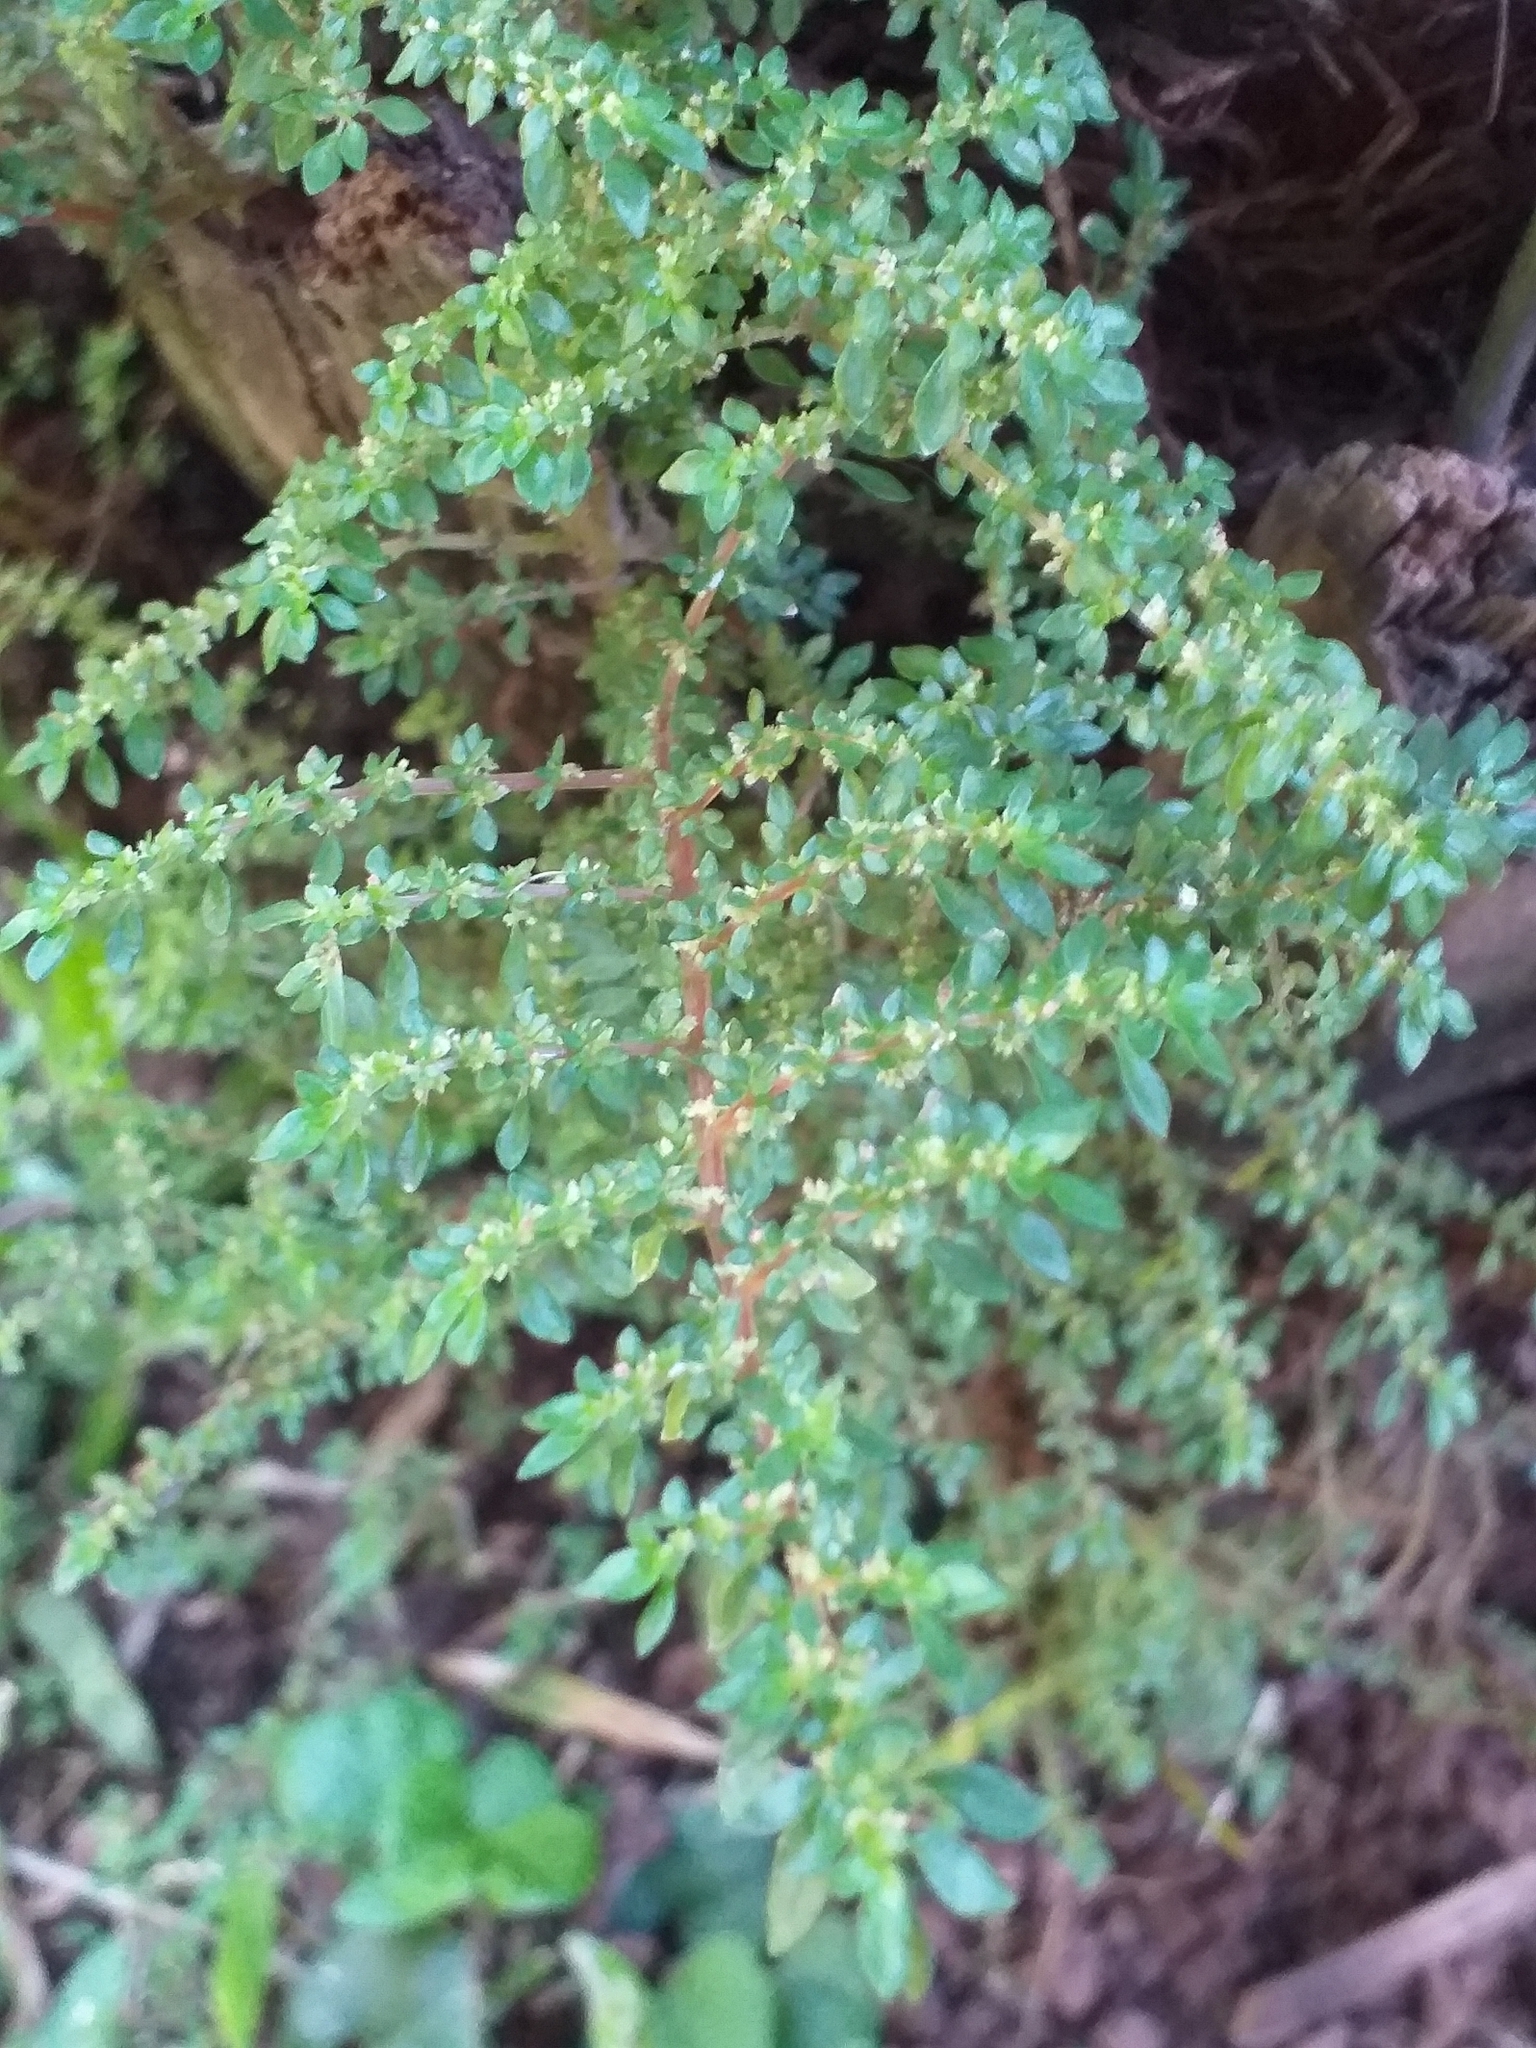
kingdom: Plantae
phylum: Tracheophyta
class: Magnoliopsida
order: Rosales
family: Urticaceae
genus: Pilea
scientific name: Pilea microphylla
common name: Artillery-plant
